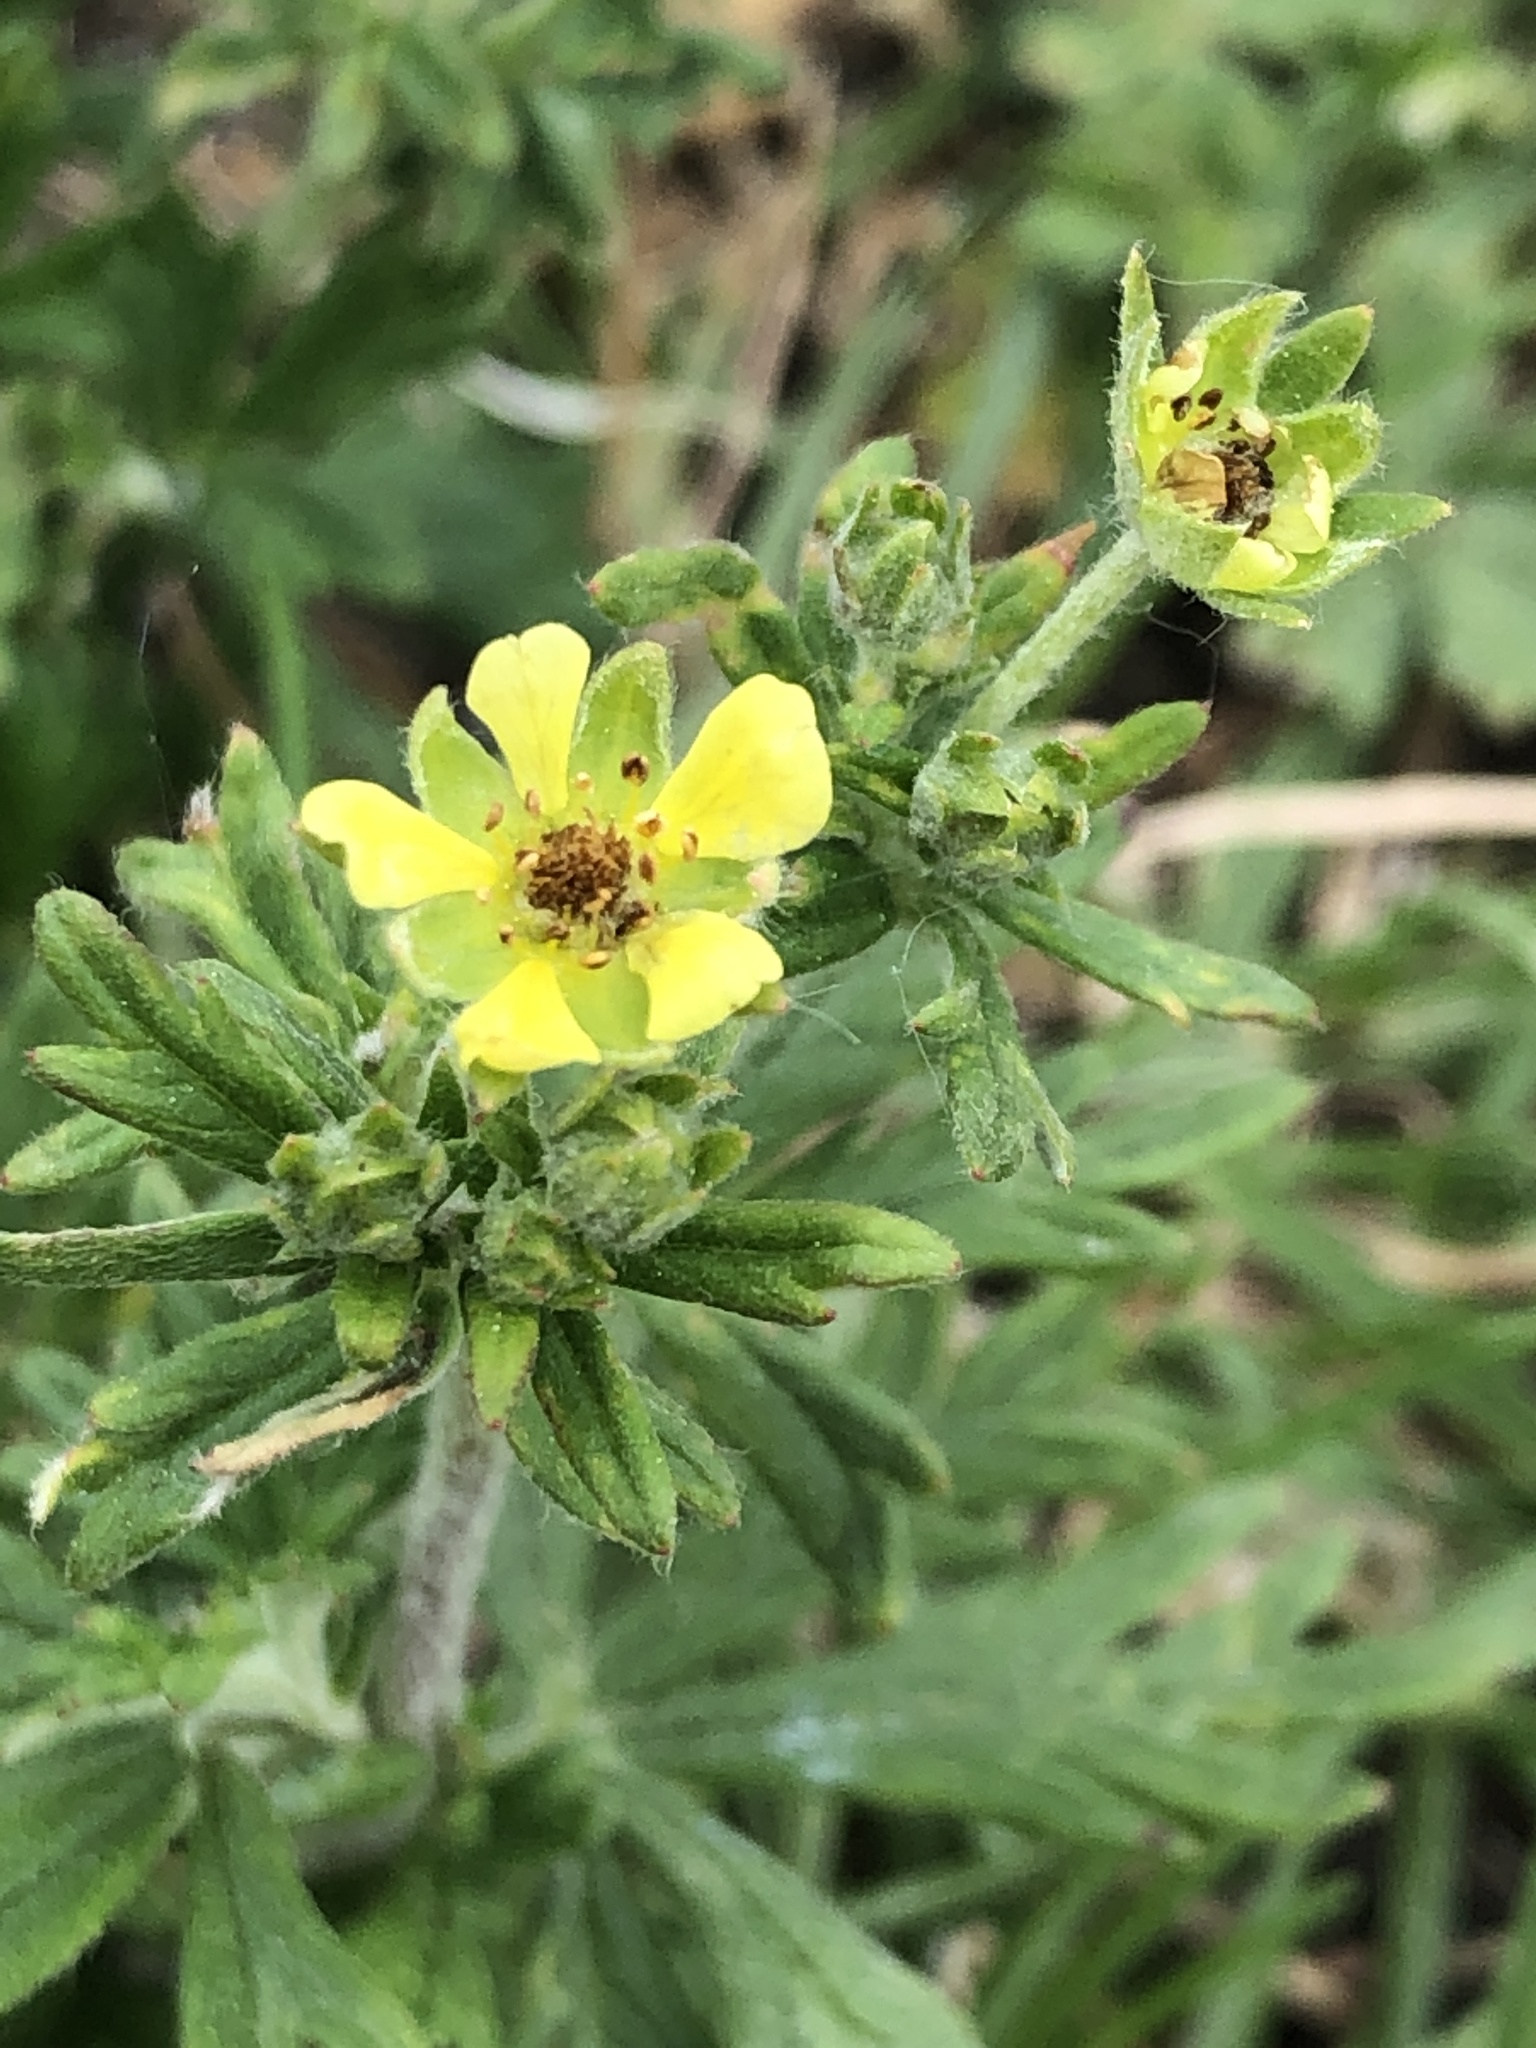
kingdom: Plantae
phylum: Tracheophyta
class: Magnoliopsida
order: Rosales
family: Rosaceae
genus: Potentilla
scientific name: Potentilla argentea
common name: Hoary cinquefoil
